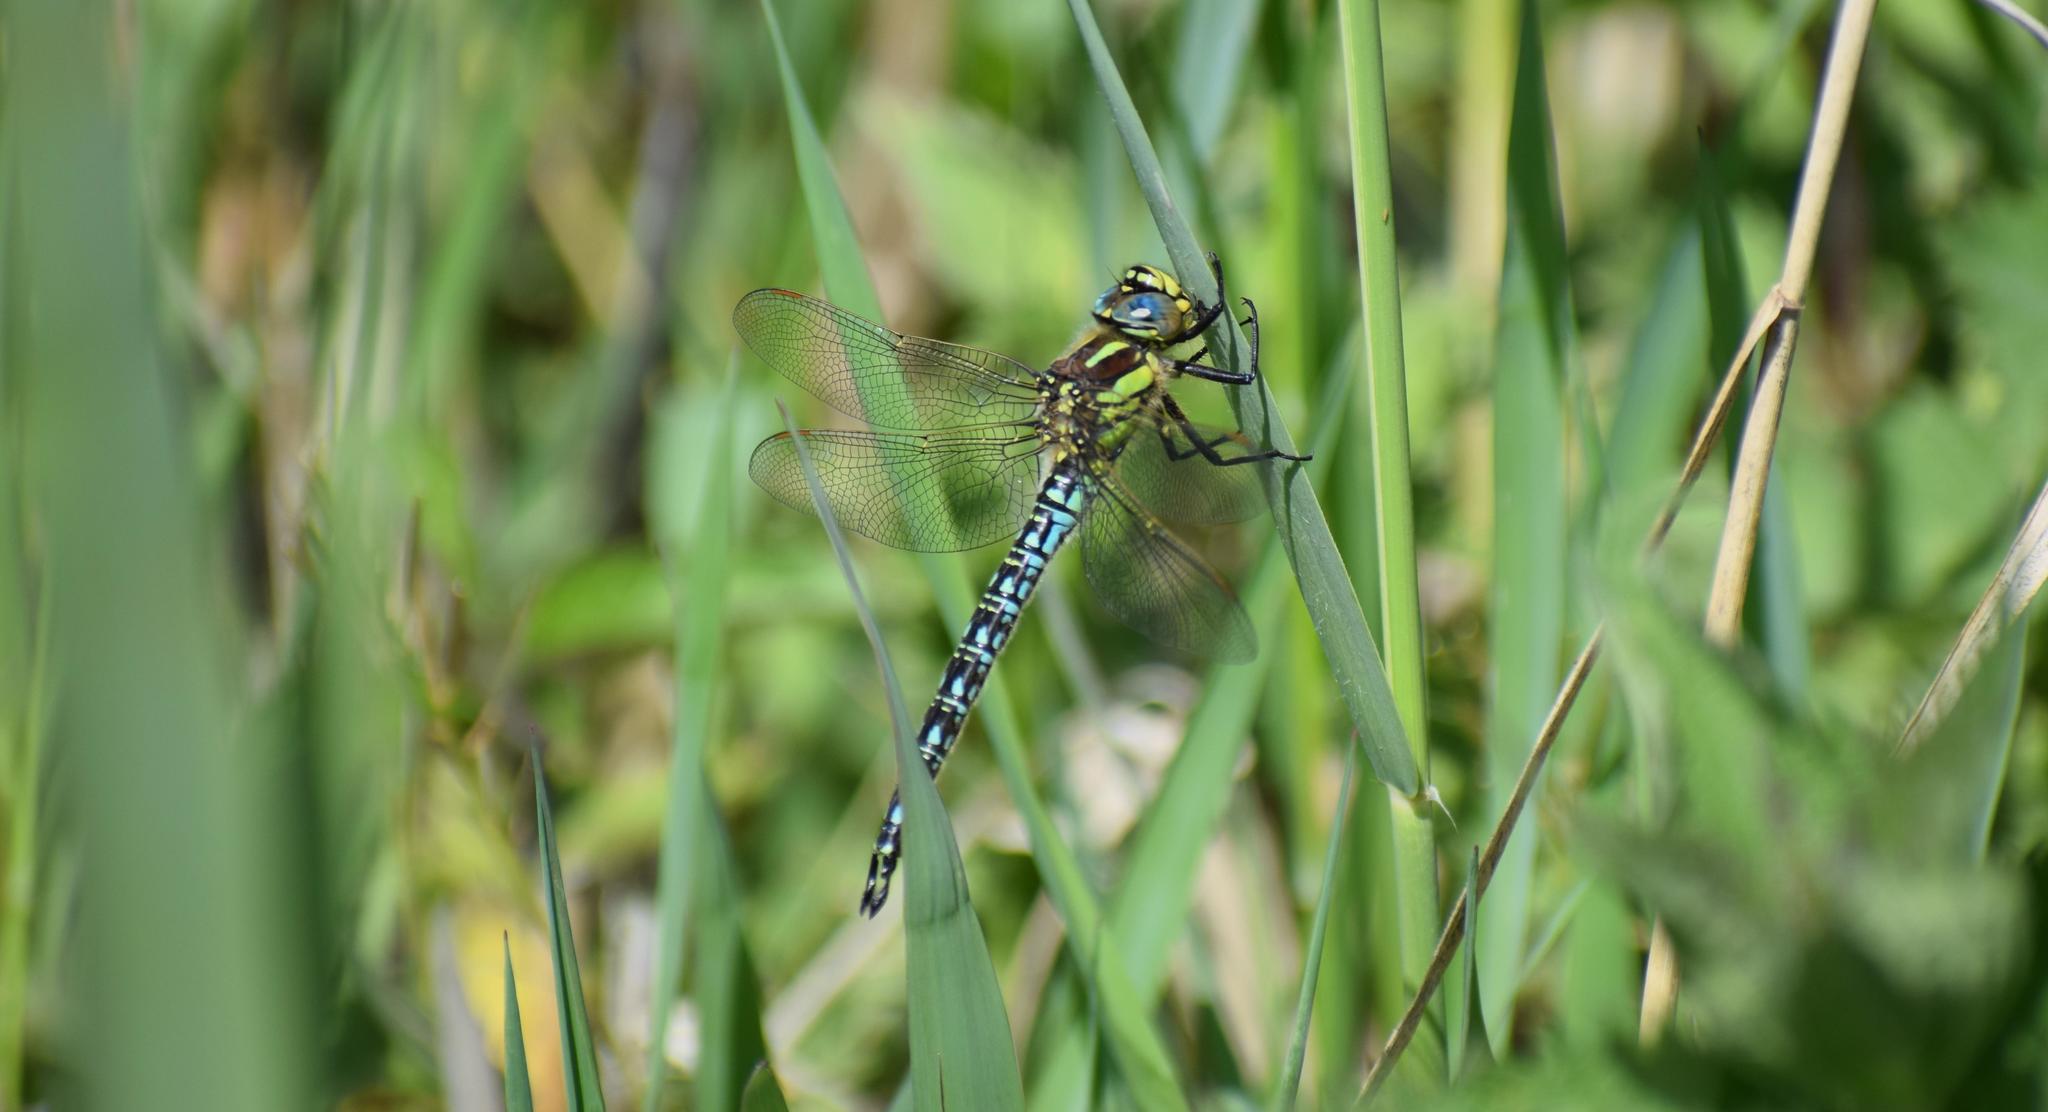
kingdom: Animalia
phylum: Arthropoda
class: Insecta
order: Odonata
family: Aeshnidae
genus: Brachytron
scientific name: Brachytron pratense
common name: Hairy hawker
